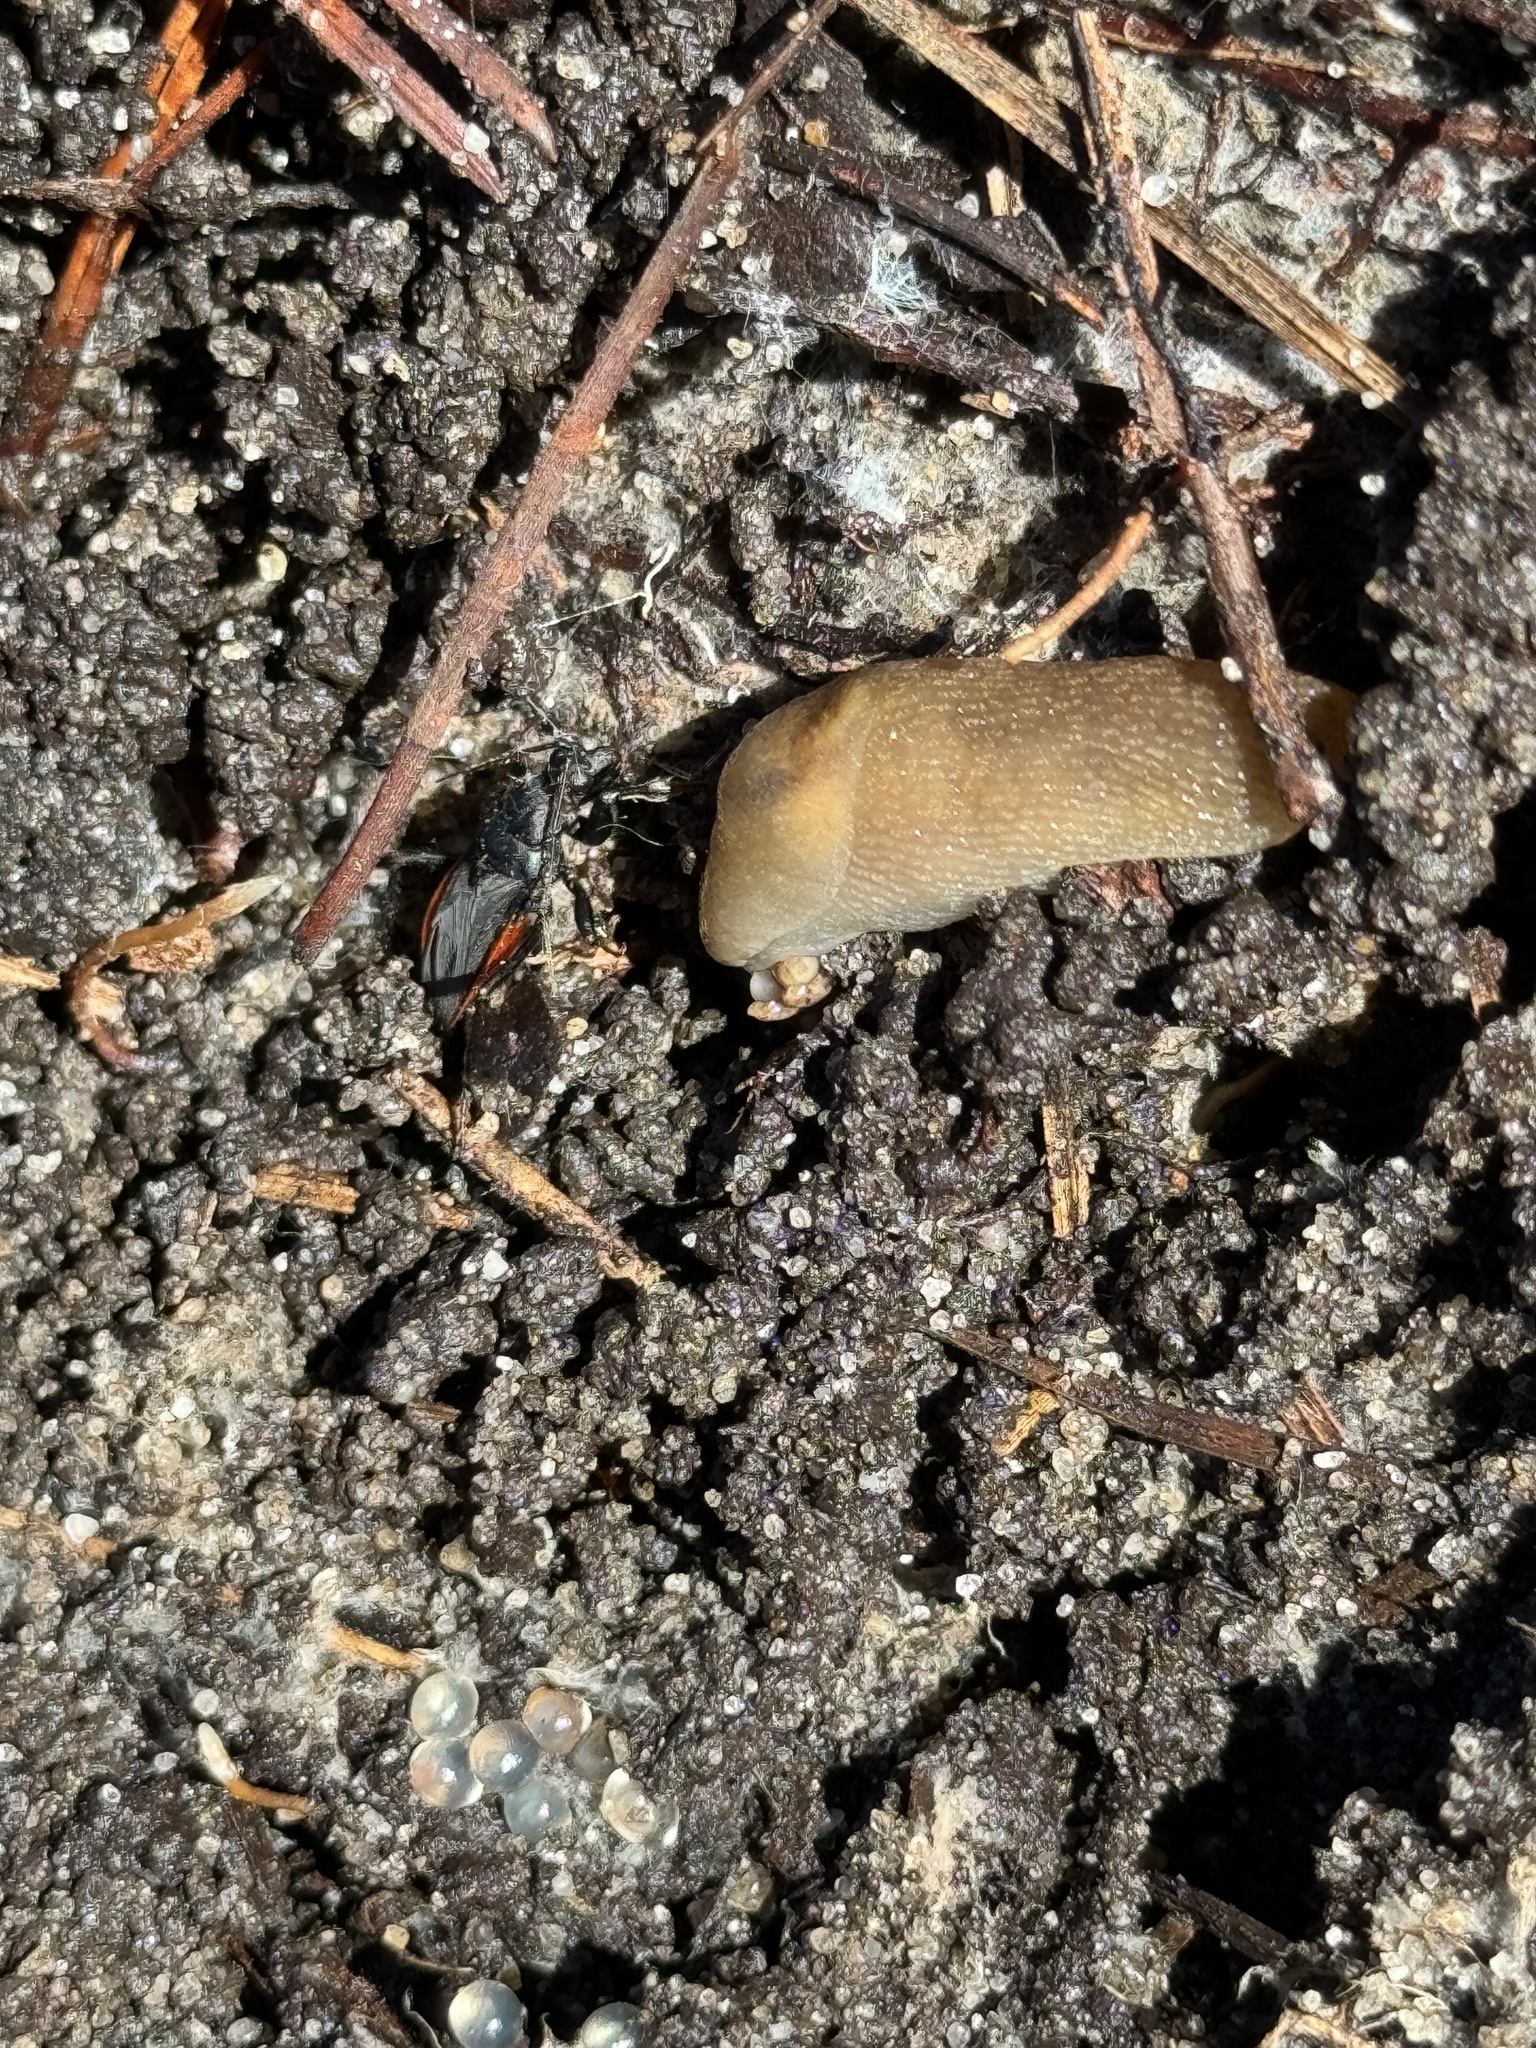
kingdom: Animalia
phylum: Arthropoda
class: Insecta
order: Hemiptera
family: Reduviidae
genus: Melanolestes
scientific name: Melanolestes picipes
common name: Assassin bug
